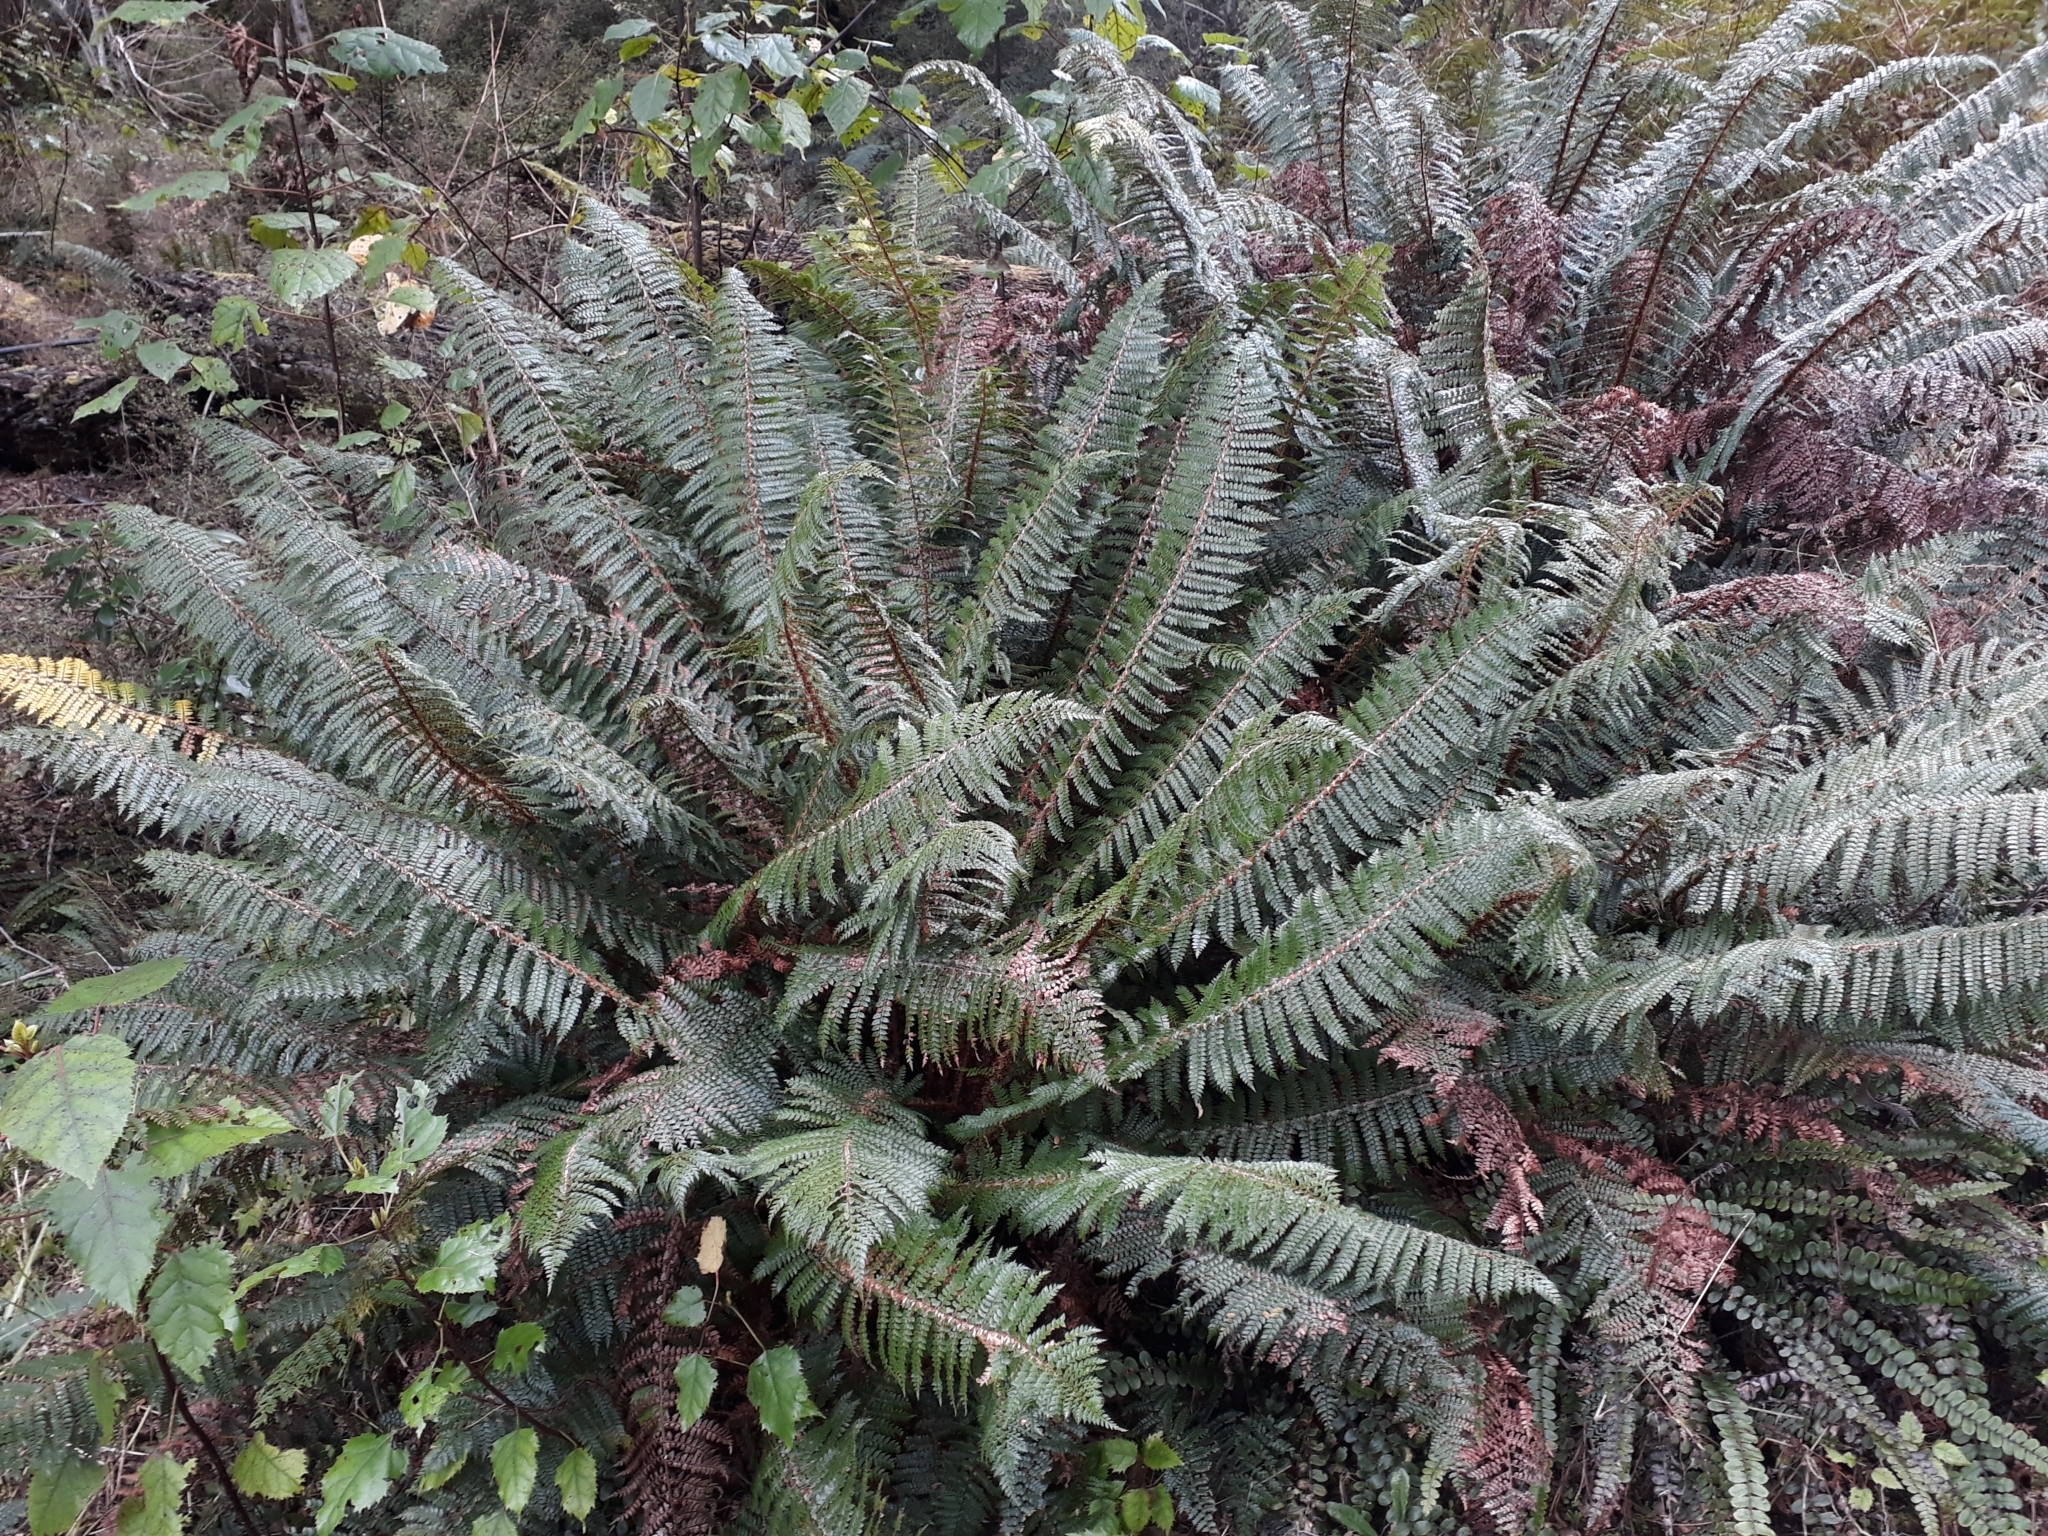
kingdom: Plantae
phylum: Tracheophyta
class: Polypodiopsida
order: Polypodiales
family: Dryopteridaceae
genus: Polystichum
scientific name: Polystichum vestitum
